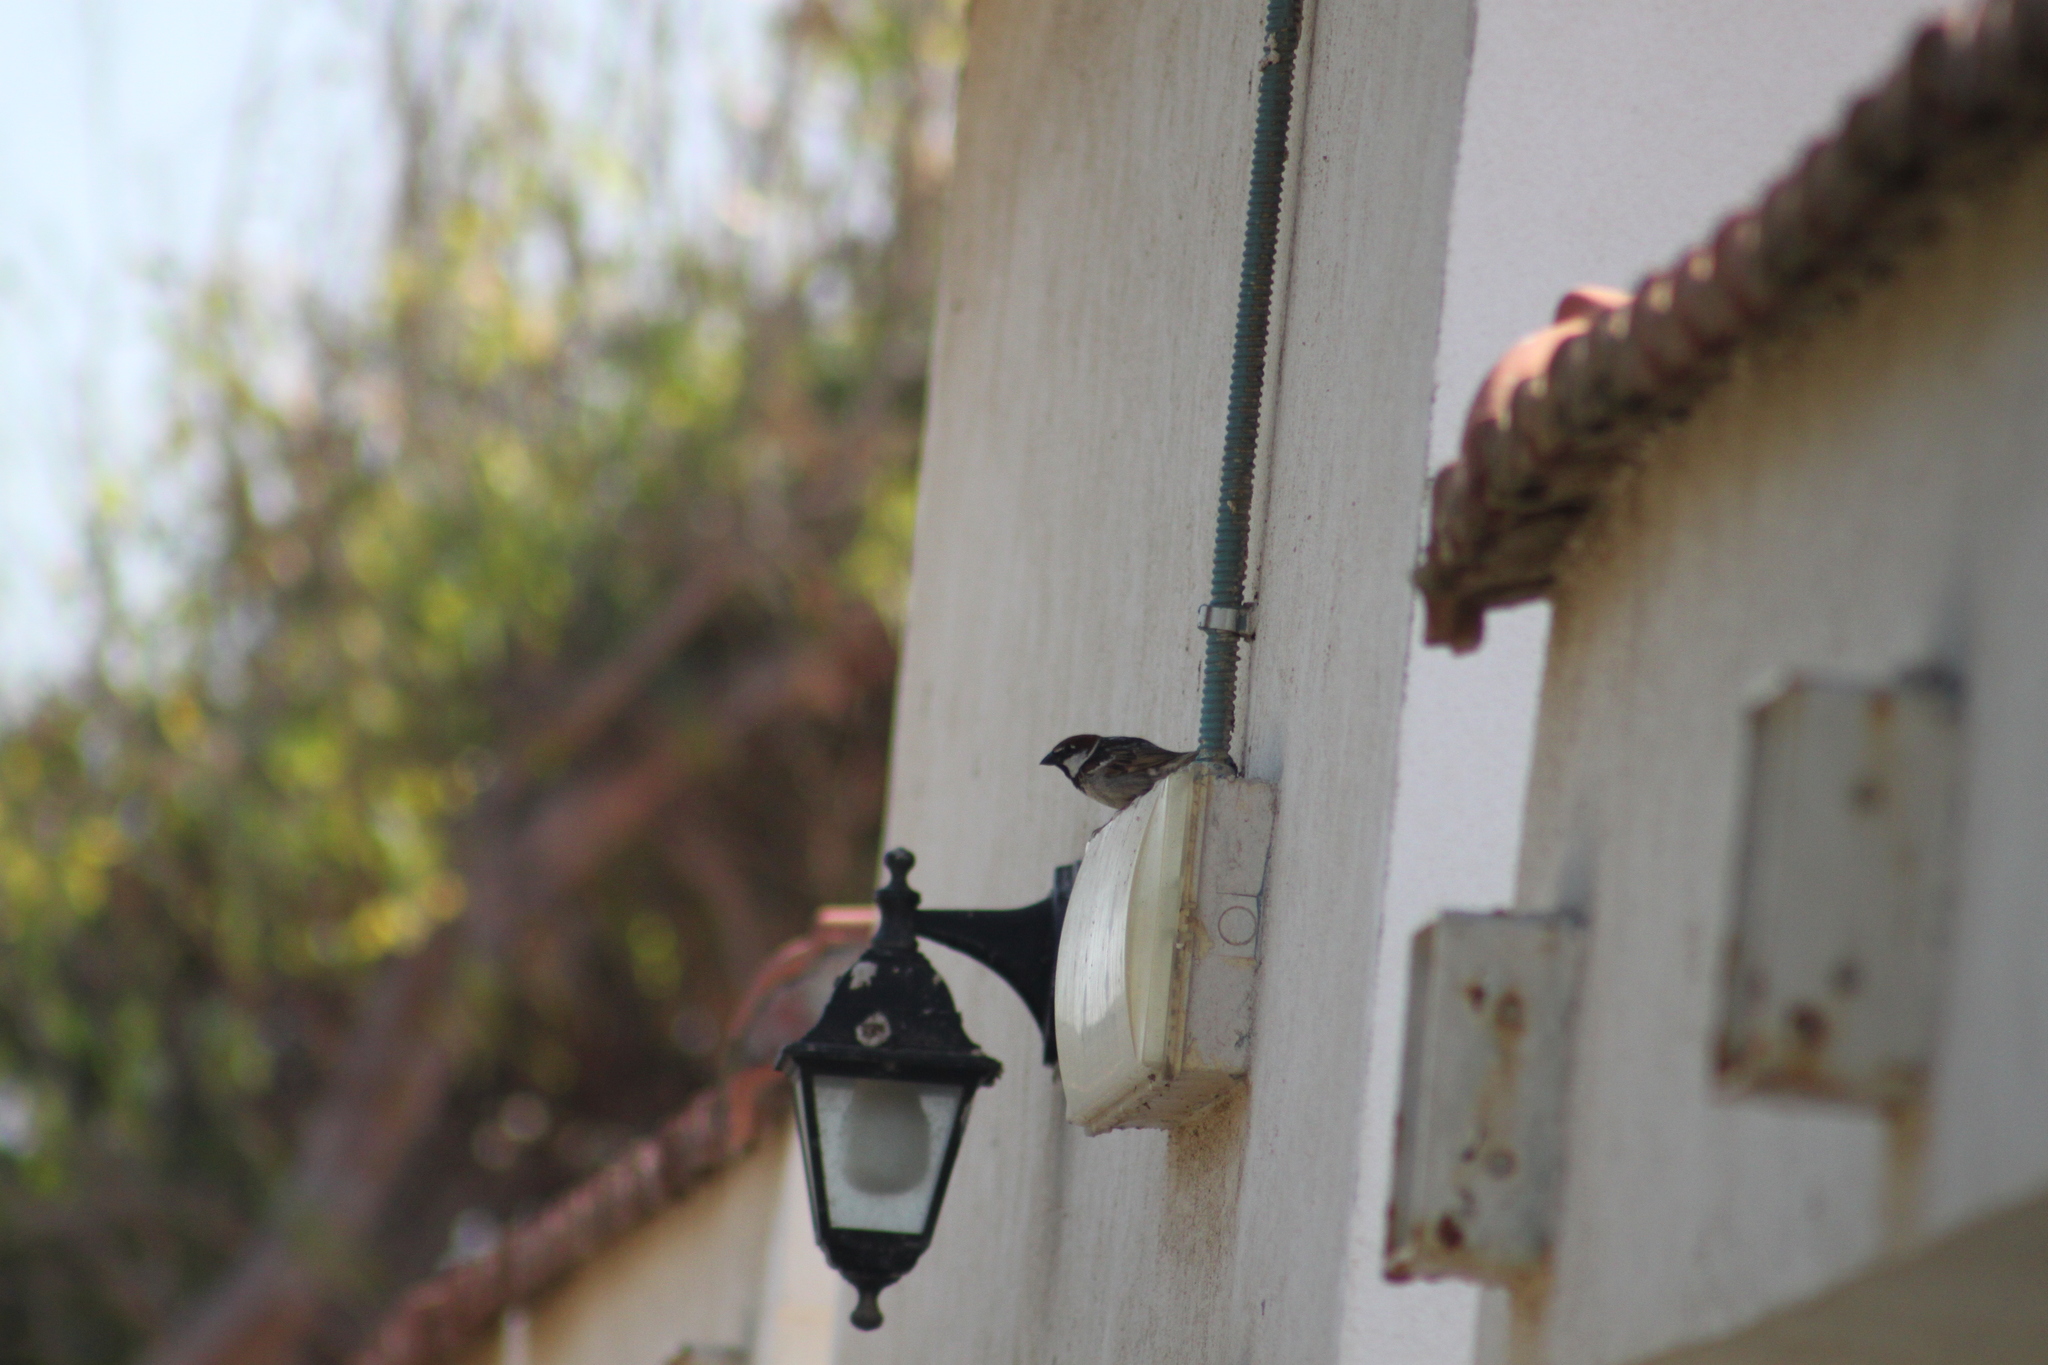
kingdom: Animalia
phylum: Chordata
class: Aves
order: Passeriformes
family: Passeridae
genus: Passer
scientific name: Passer italiae
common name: Italian sparrow
